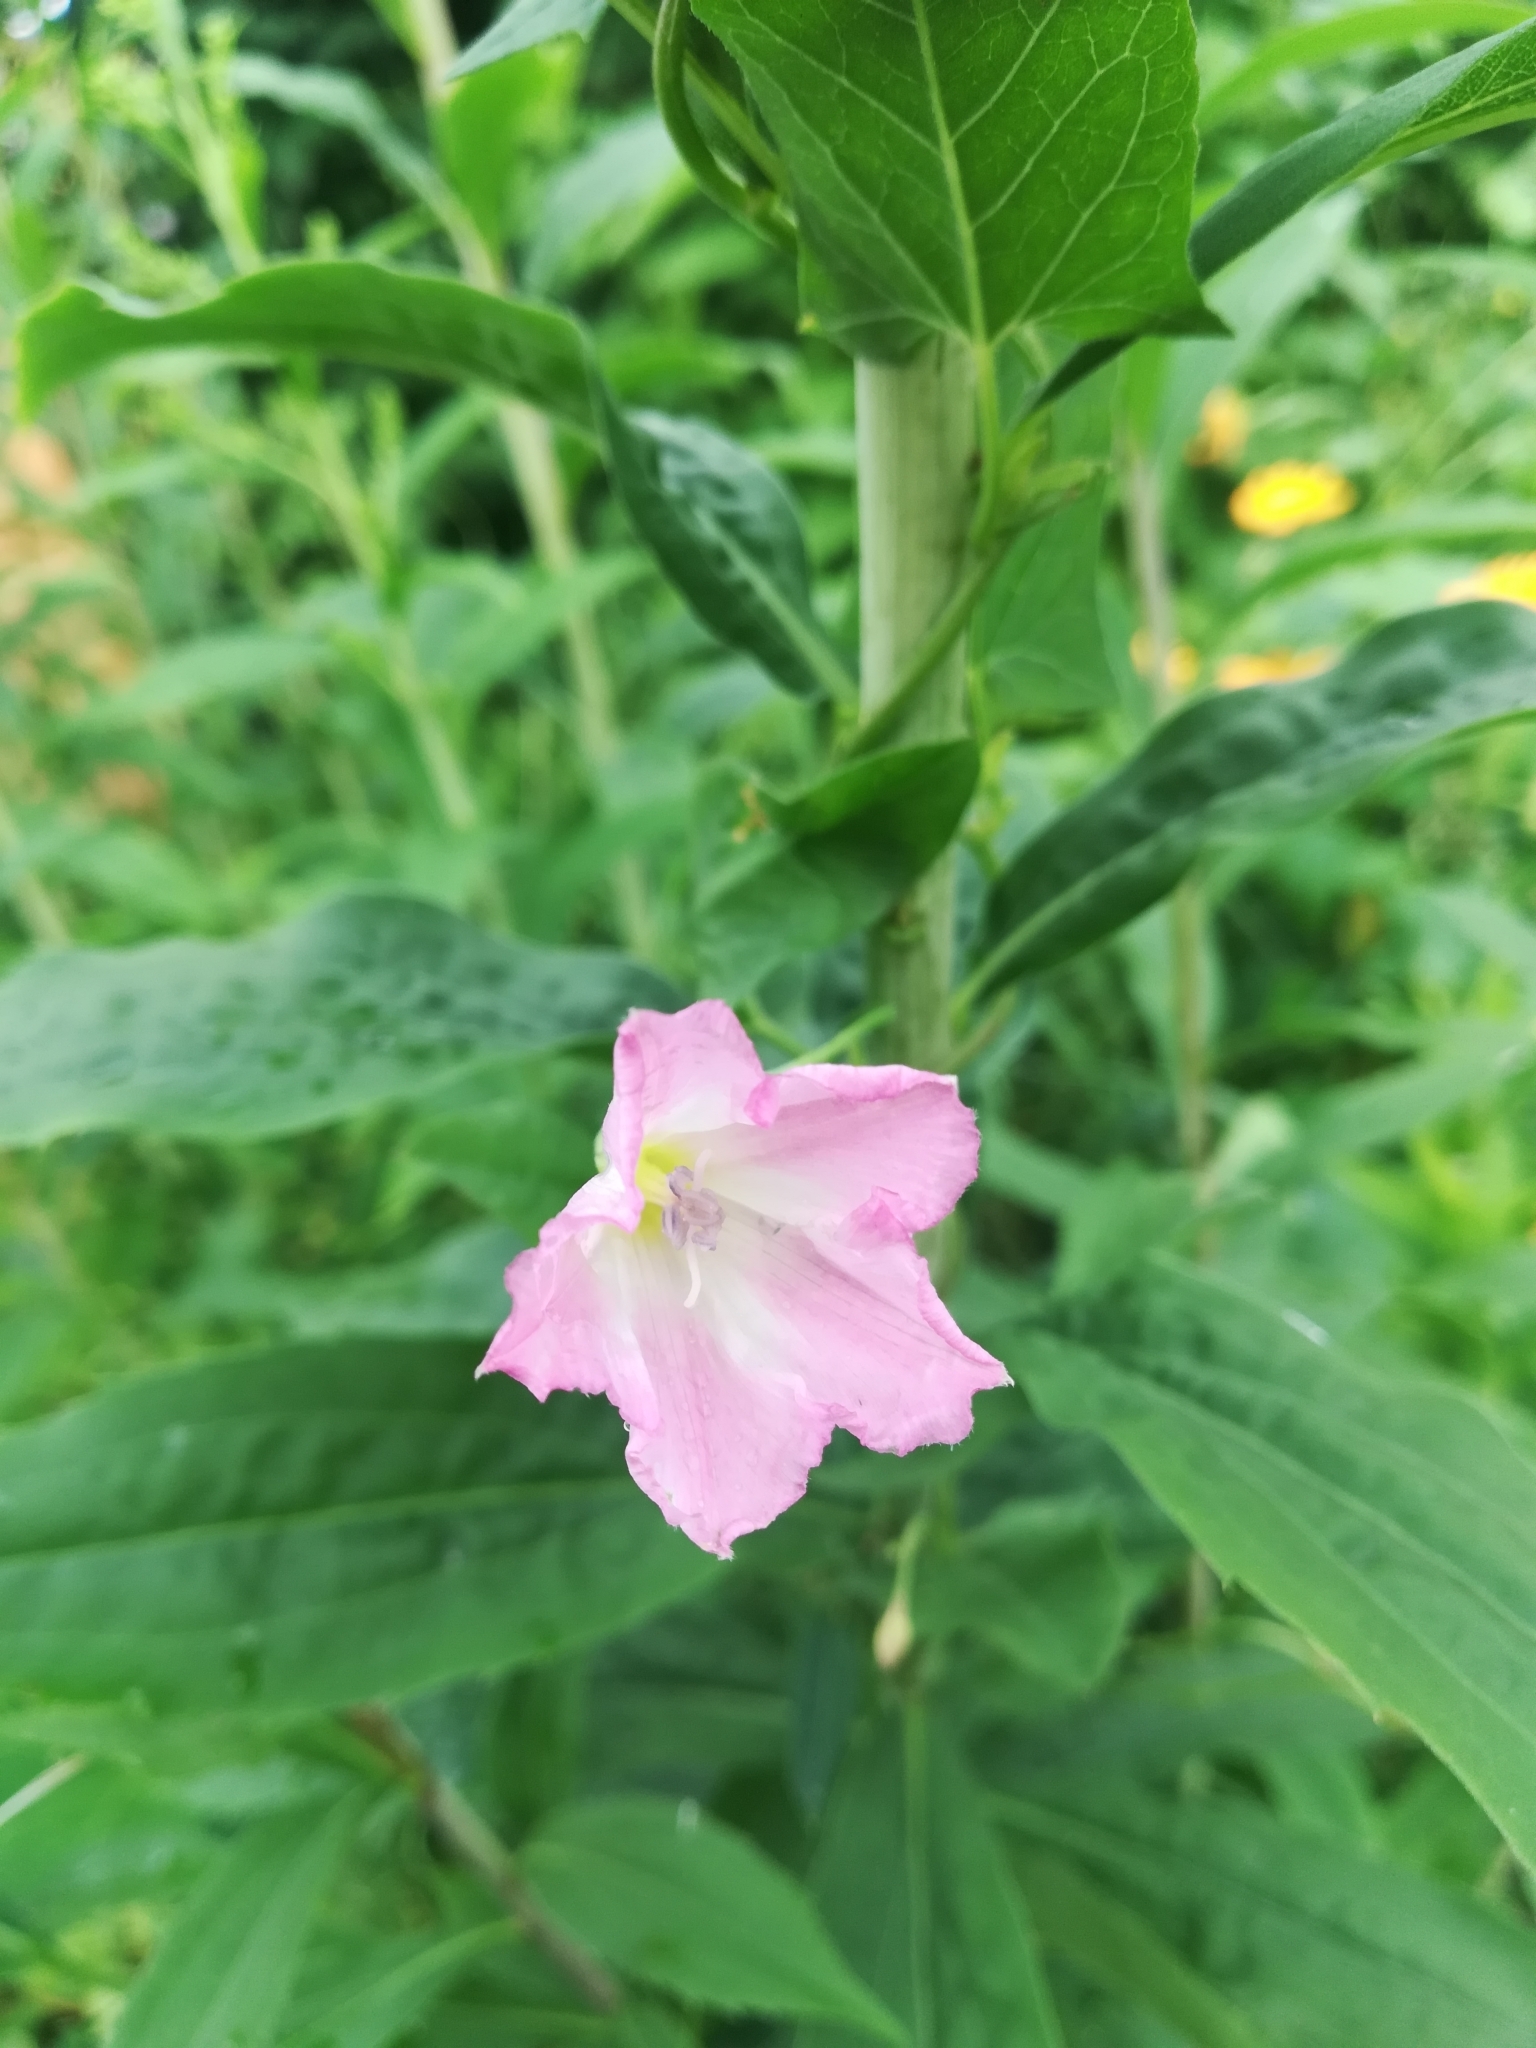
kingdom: Plantae
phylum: Tracheophyta
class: Magnoliopsida
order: Solanales
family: Convolvulaceae
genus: Convolvulus
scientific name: Convolvulus arvensis
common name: Field bindweed
